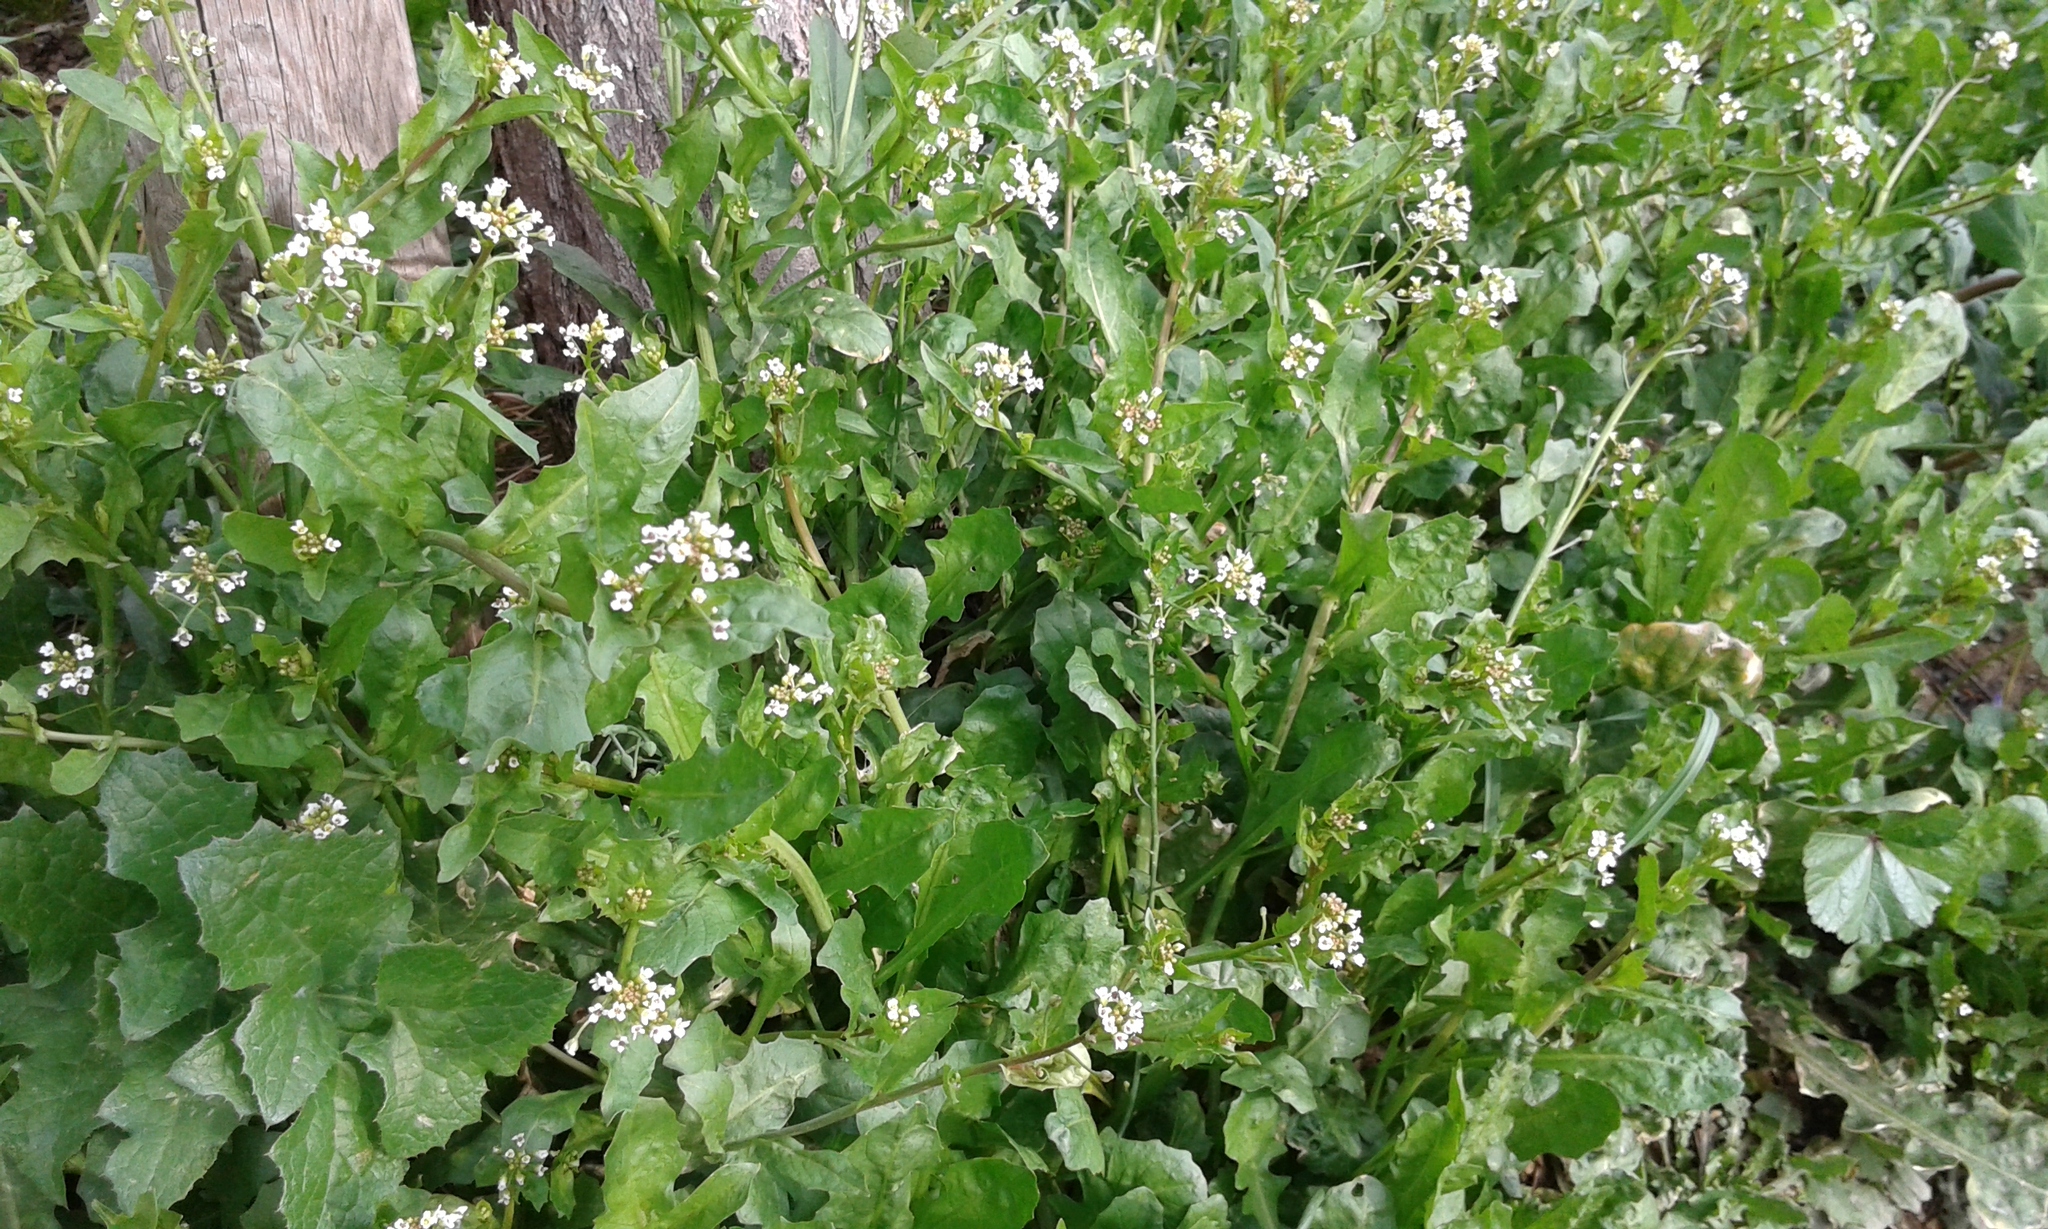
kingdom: Plantae
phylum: Tracheophyta
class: Magnoliopsida
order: Brassicales
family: Brassicaceae
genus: Calepina
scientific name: Calepina irregularis
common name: White ballmustard
